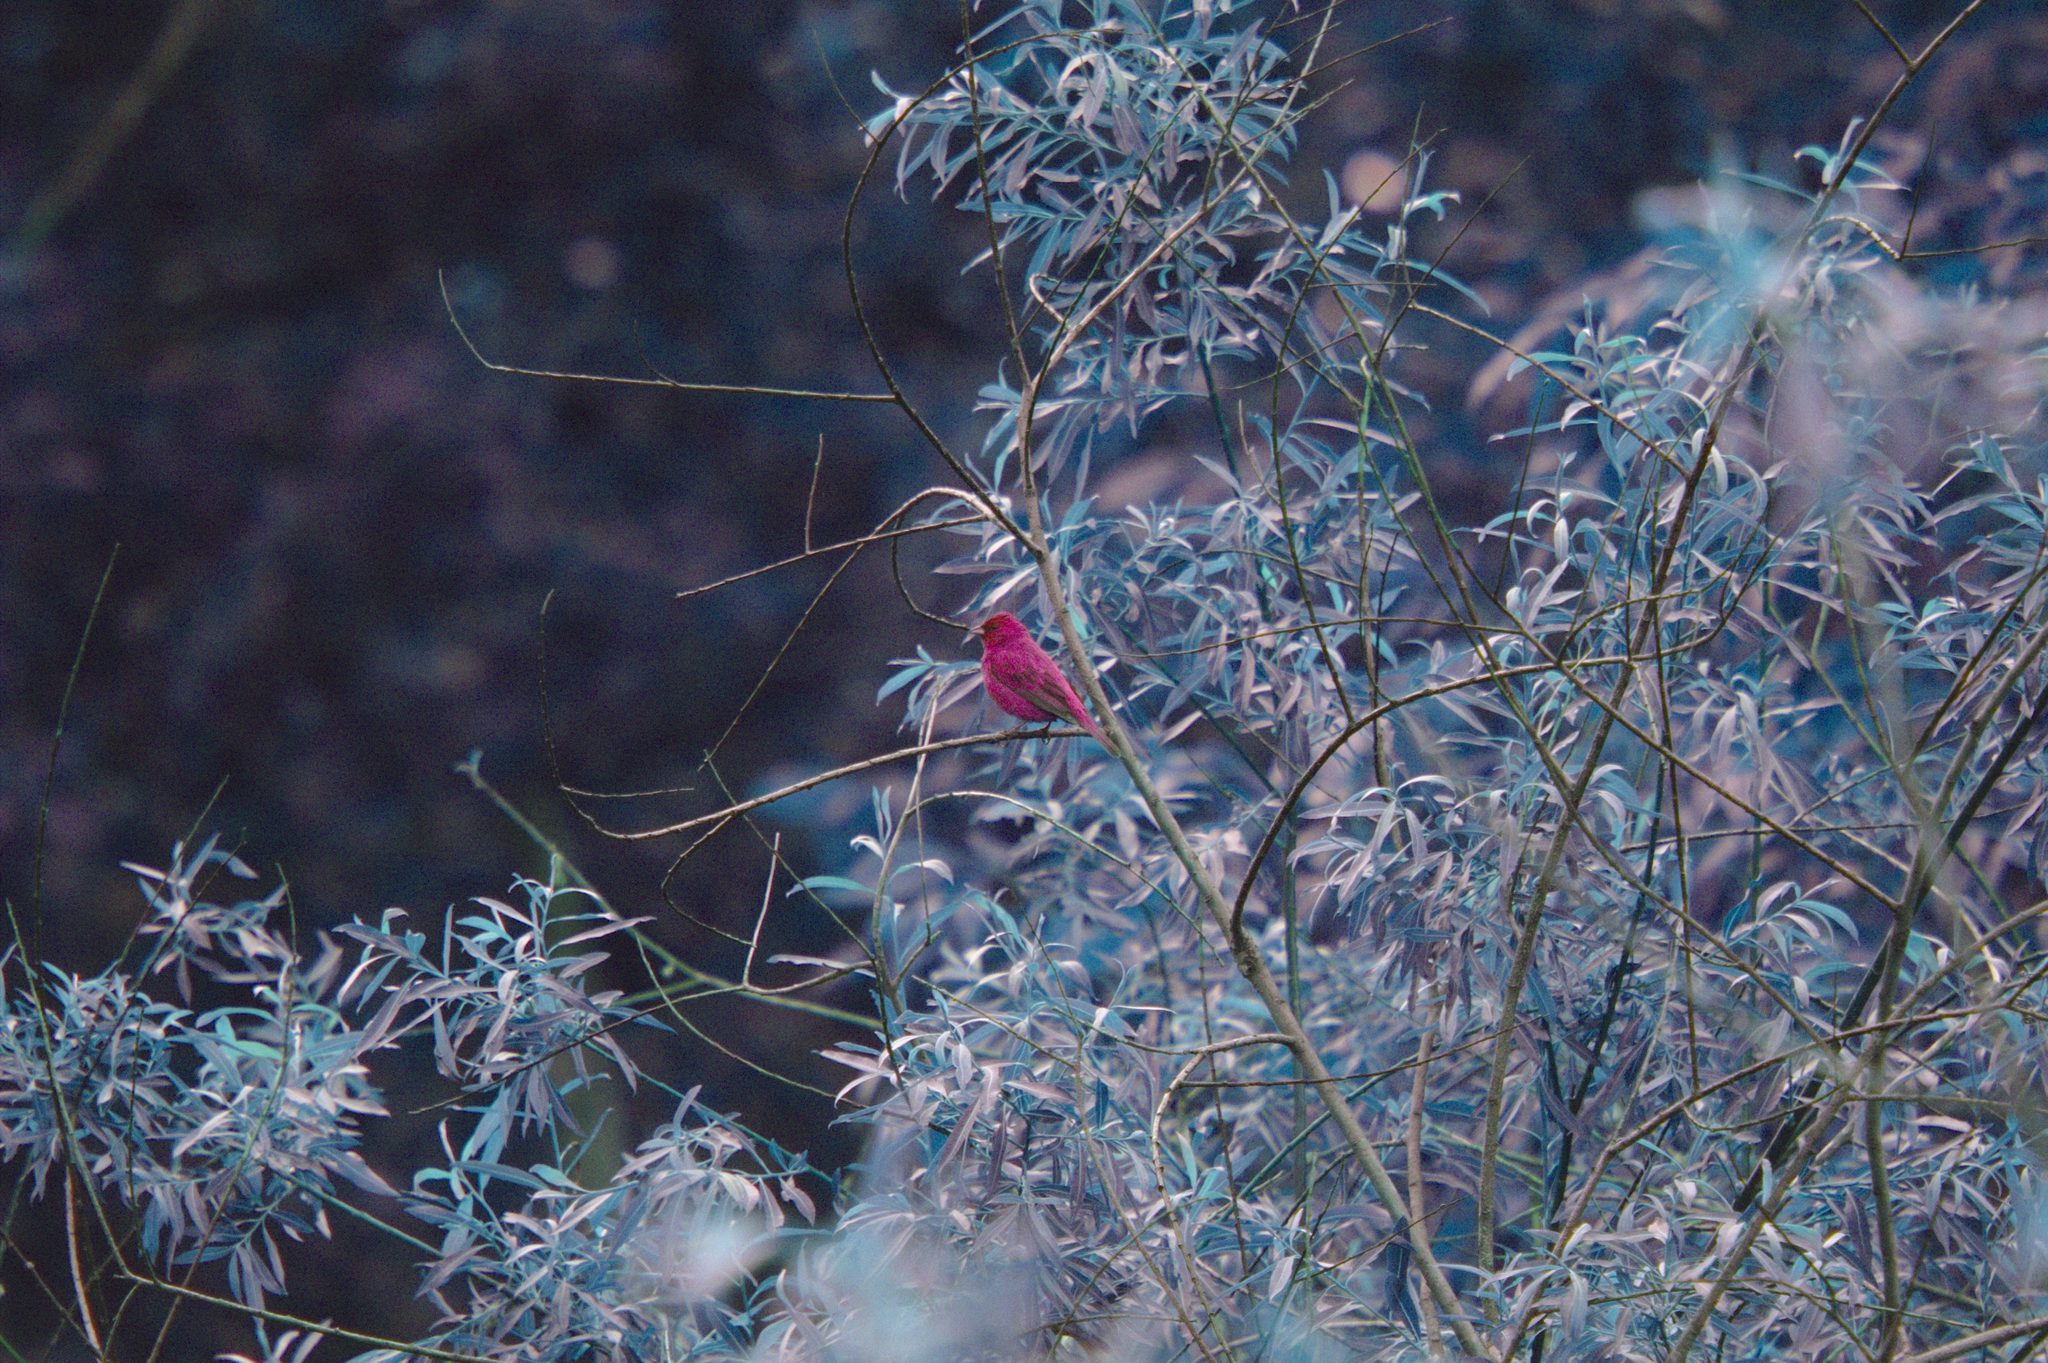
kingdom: Animalia
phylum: Chordata
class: Aves
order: Passeriformes
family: Cardinalidae
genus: Passerina
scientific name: Passerina cyanea
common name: Indigo bunting
